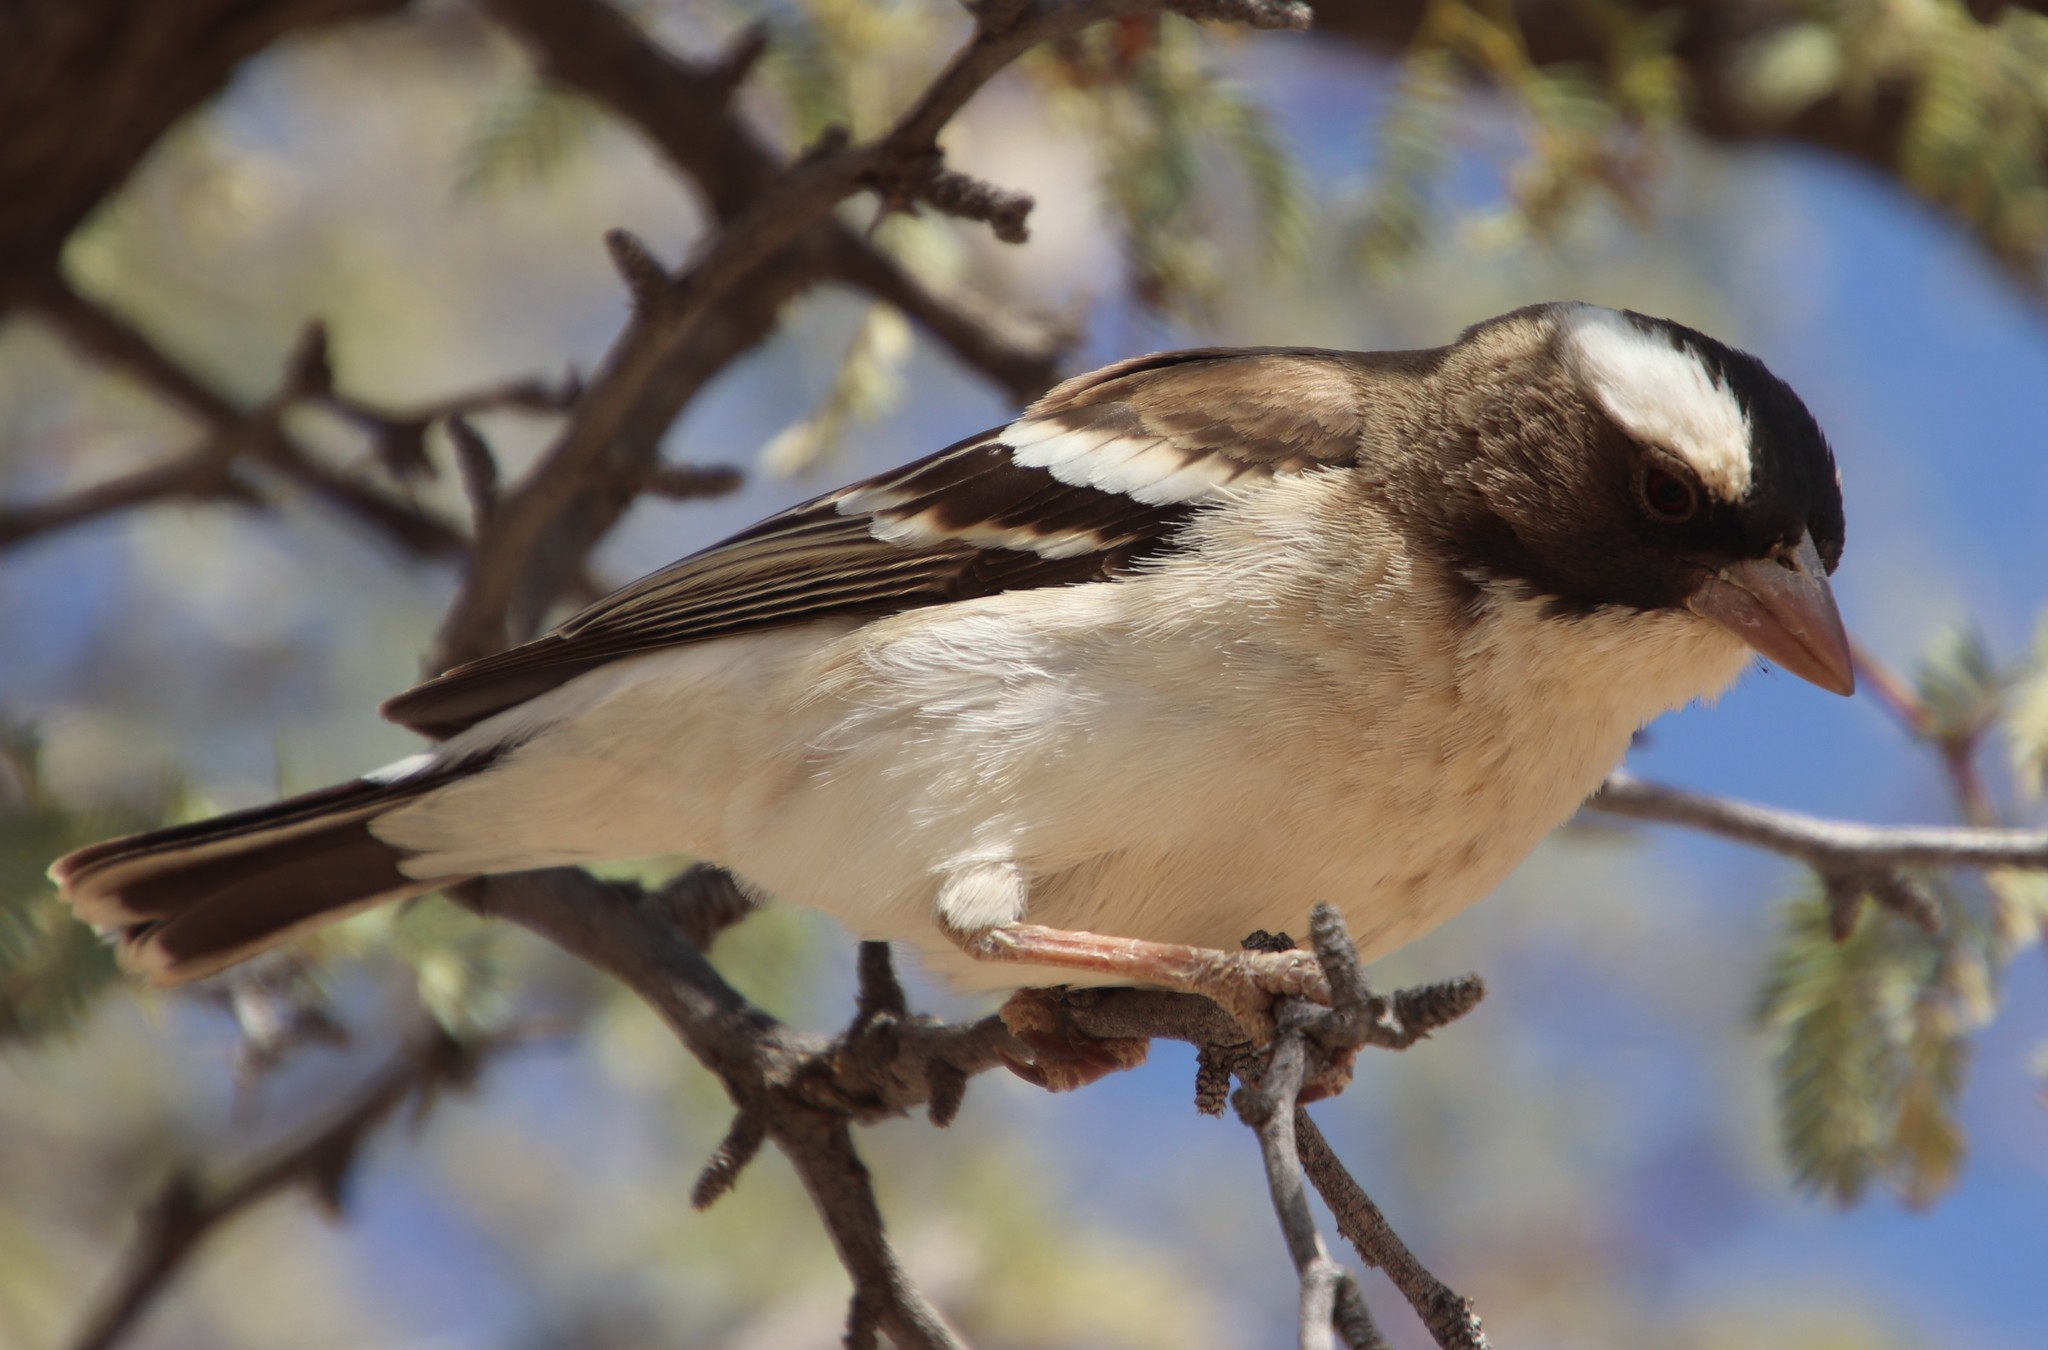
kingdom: Animalia
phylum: Chordata
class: Aves
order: Passeriformes
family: Passeridae
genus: Plocepasser
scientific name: Plocepasser mahali
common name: White-browed sparrow-weaver
